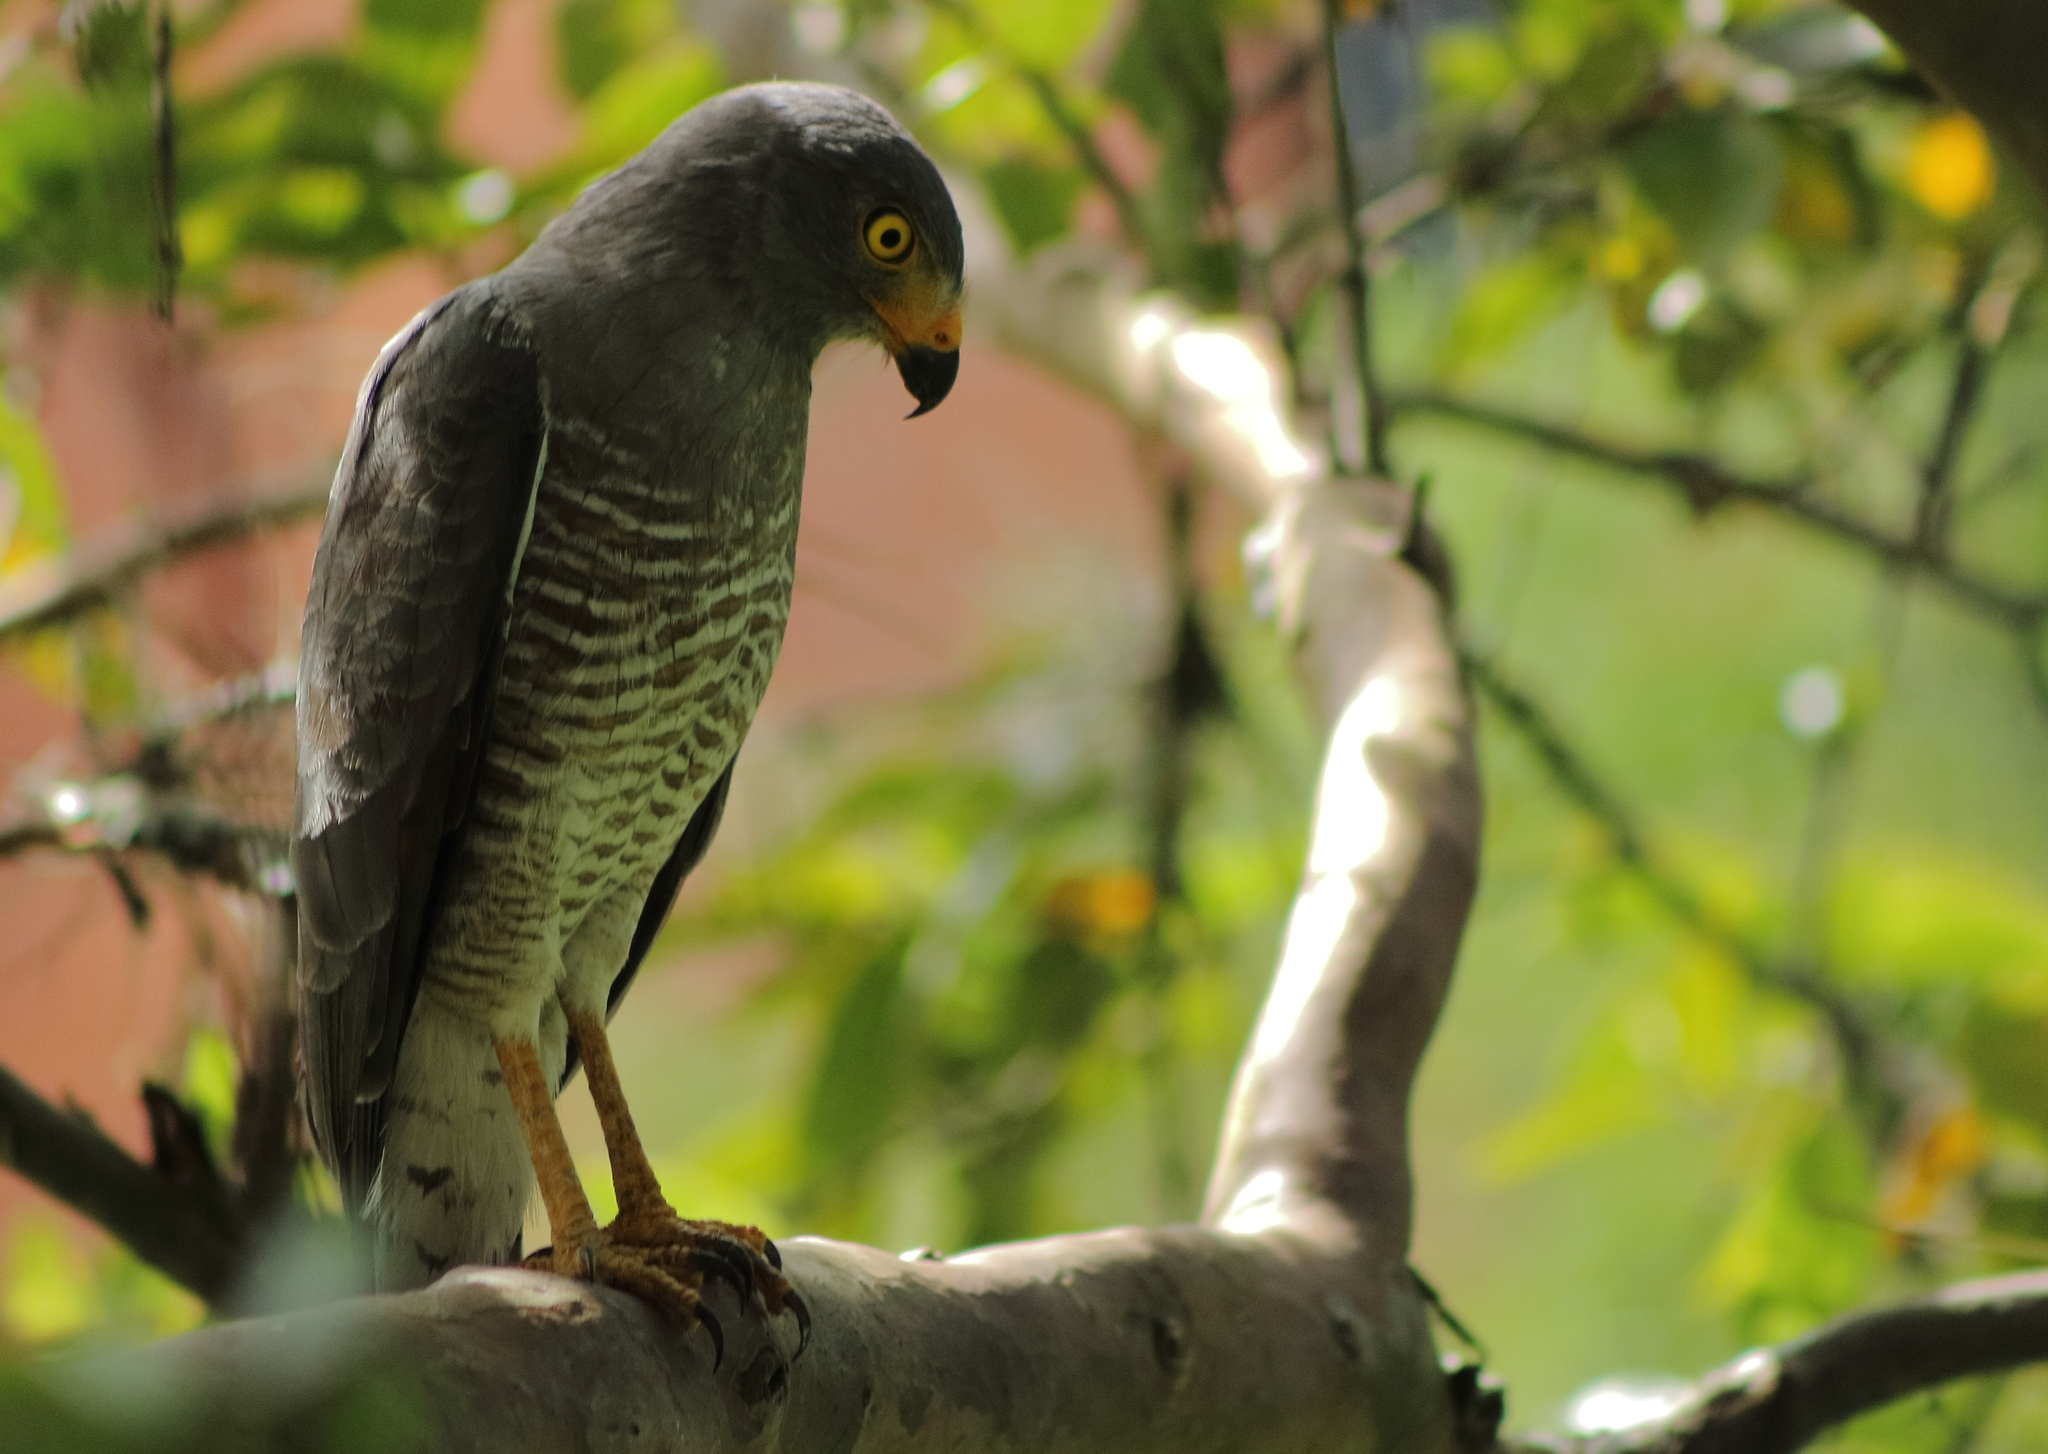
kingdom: Animalia
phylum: Chordata
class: Aves
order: Accipitriformes
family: Accipitridae
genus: Rupornis
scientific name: Rupornis magnirostris
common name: Roadside hawk
